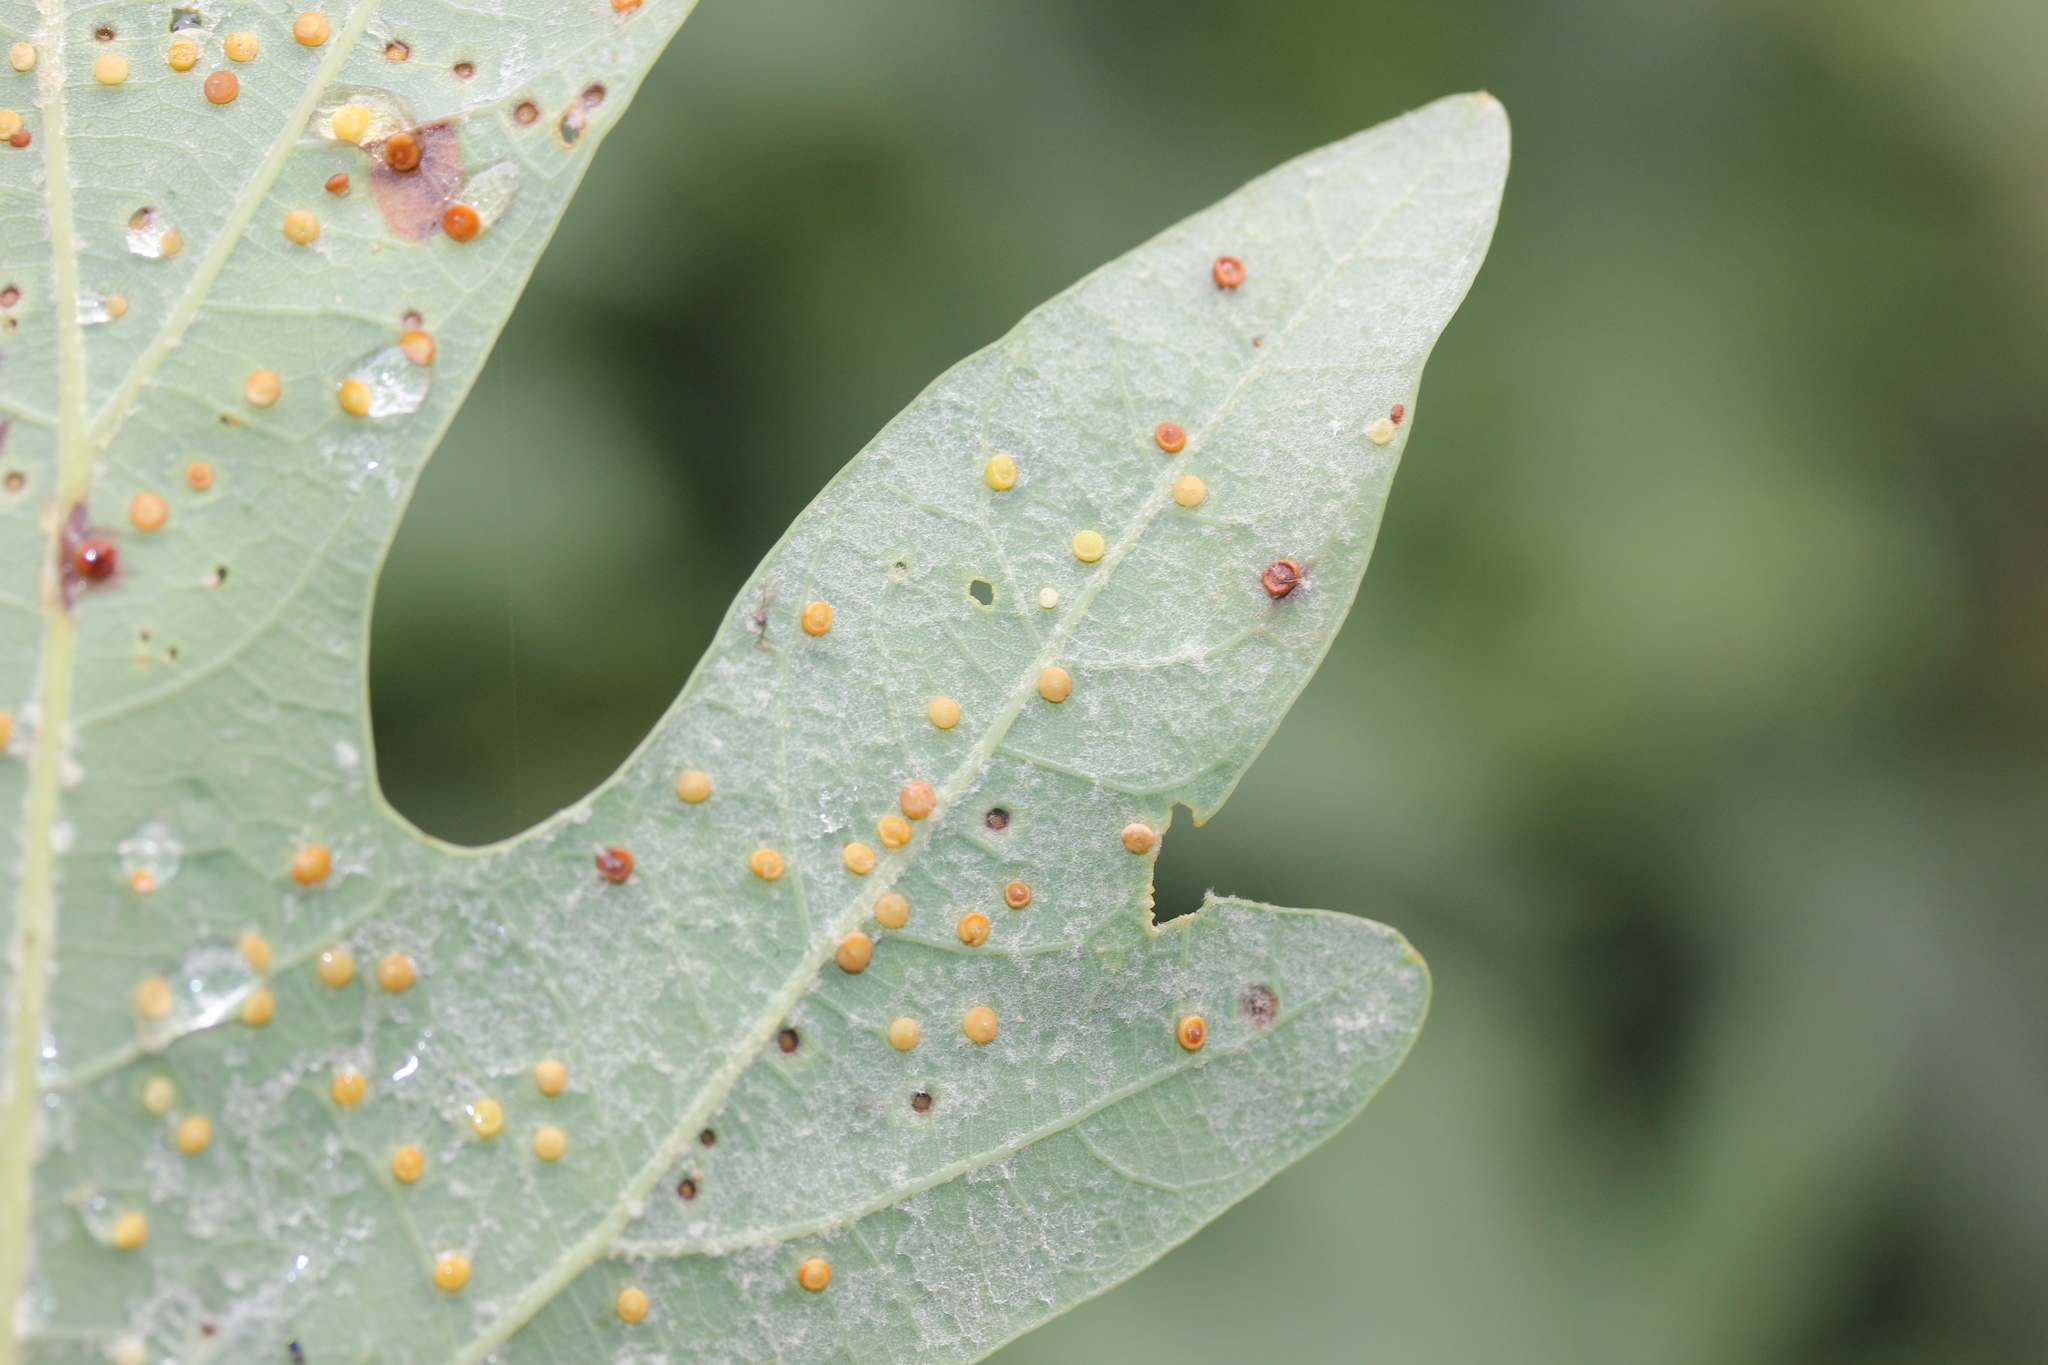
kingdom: Animalia
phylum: Arthropoda
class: Insecta
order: Hymenoptera
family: Cynipidae
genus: Neuroterus
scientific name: Neuroterus
